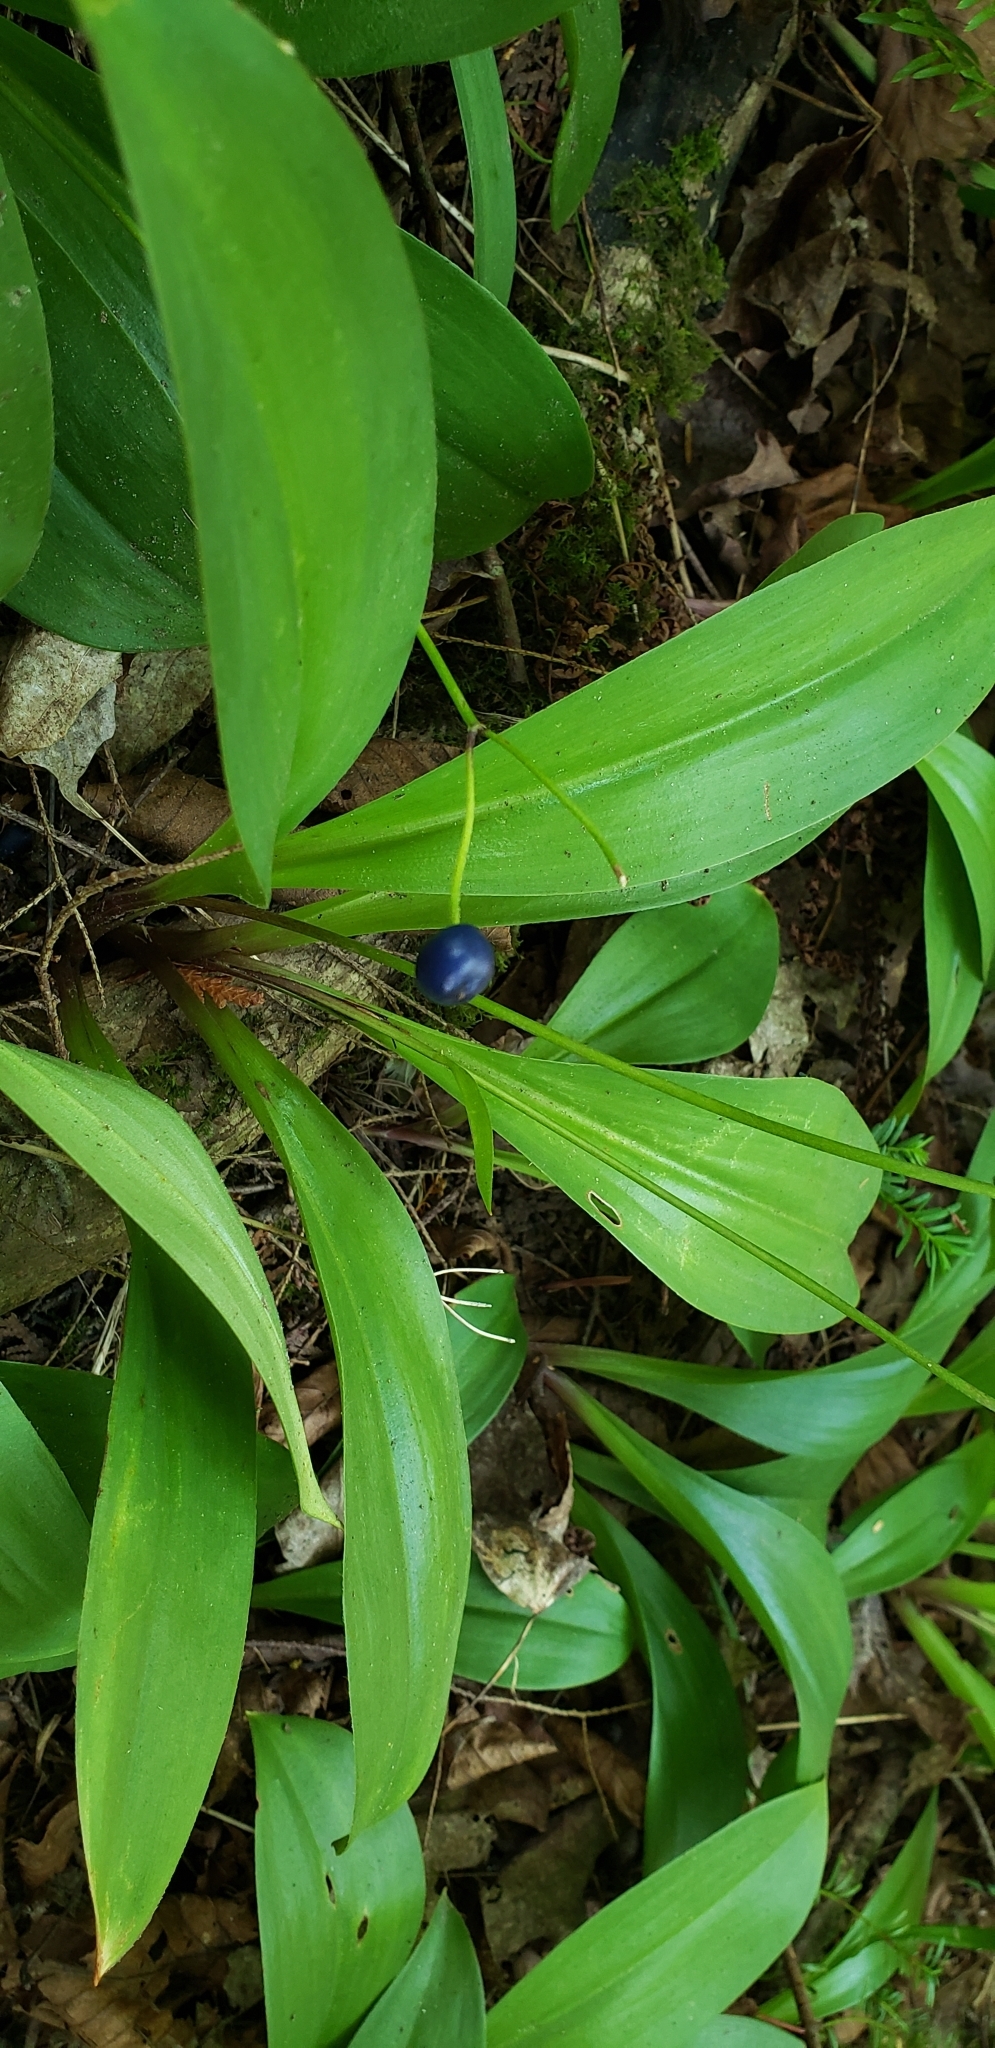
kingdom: Plantae
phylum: Tracheophyta
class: Liliopsida
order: Liliales
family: Liliaceae
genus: Clintonia
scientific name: Clintonia borealis
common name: Yellow clintonia
